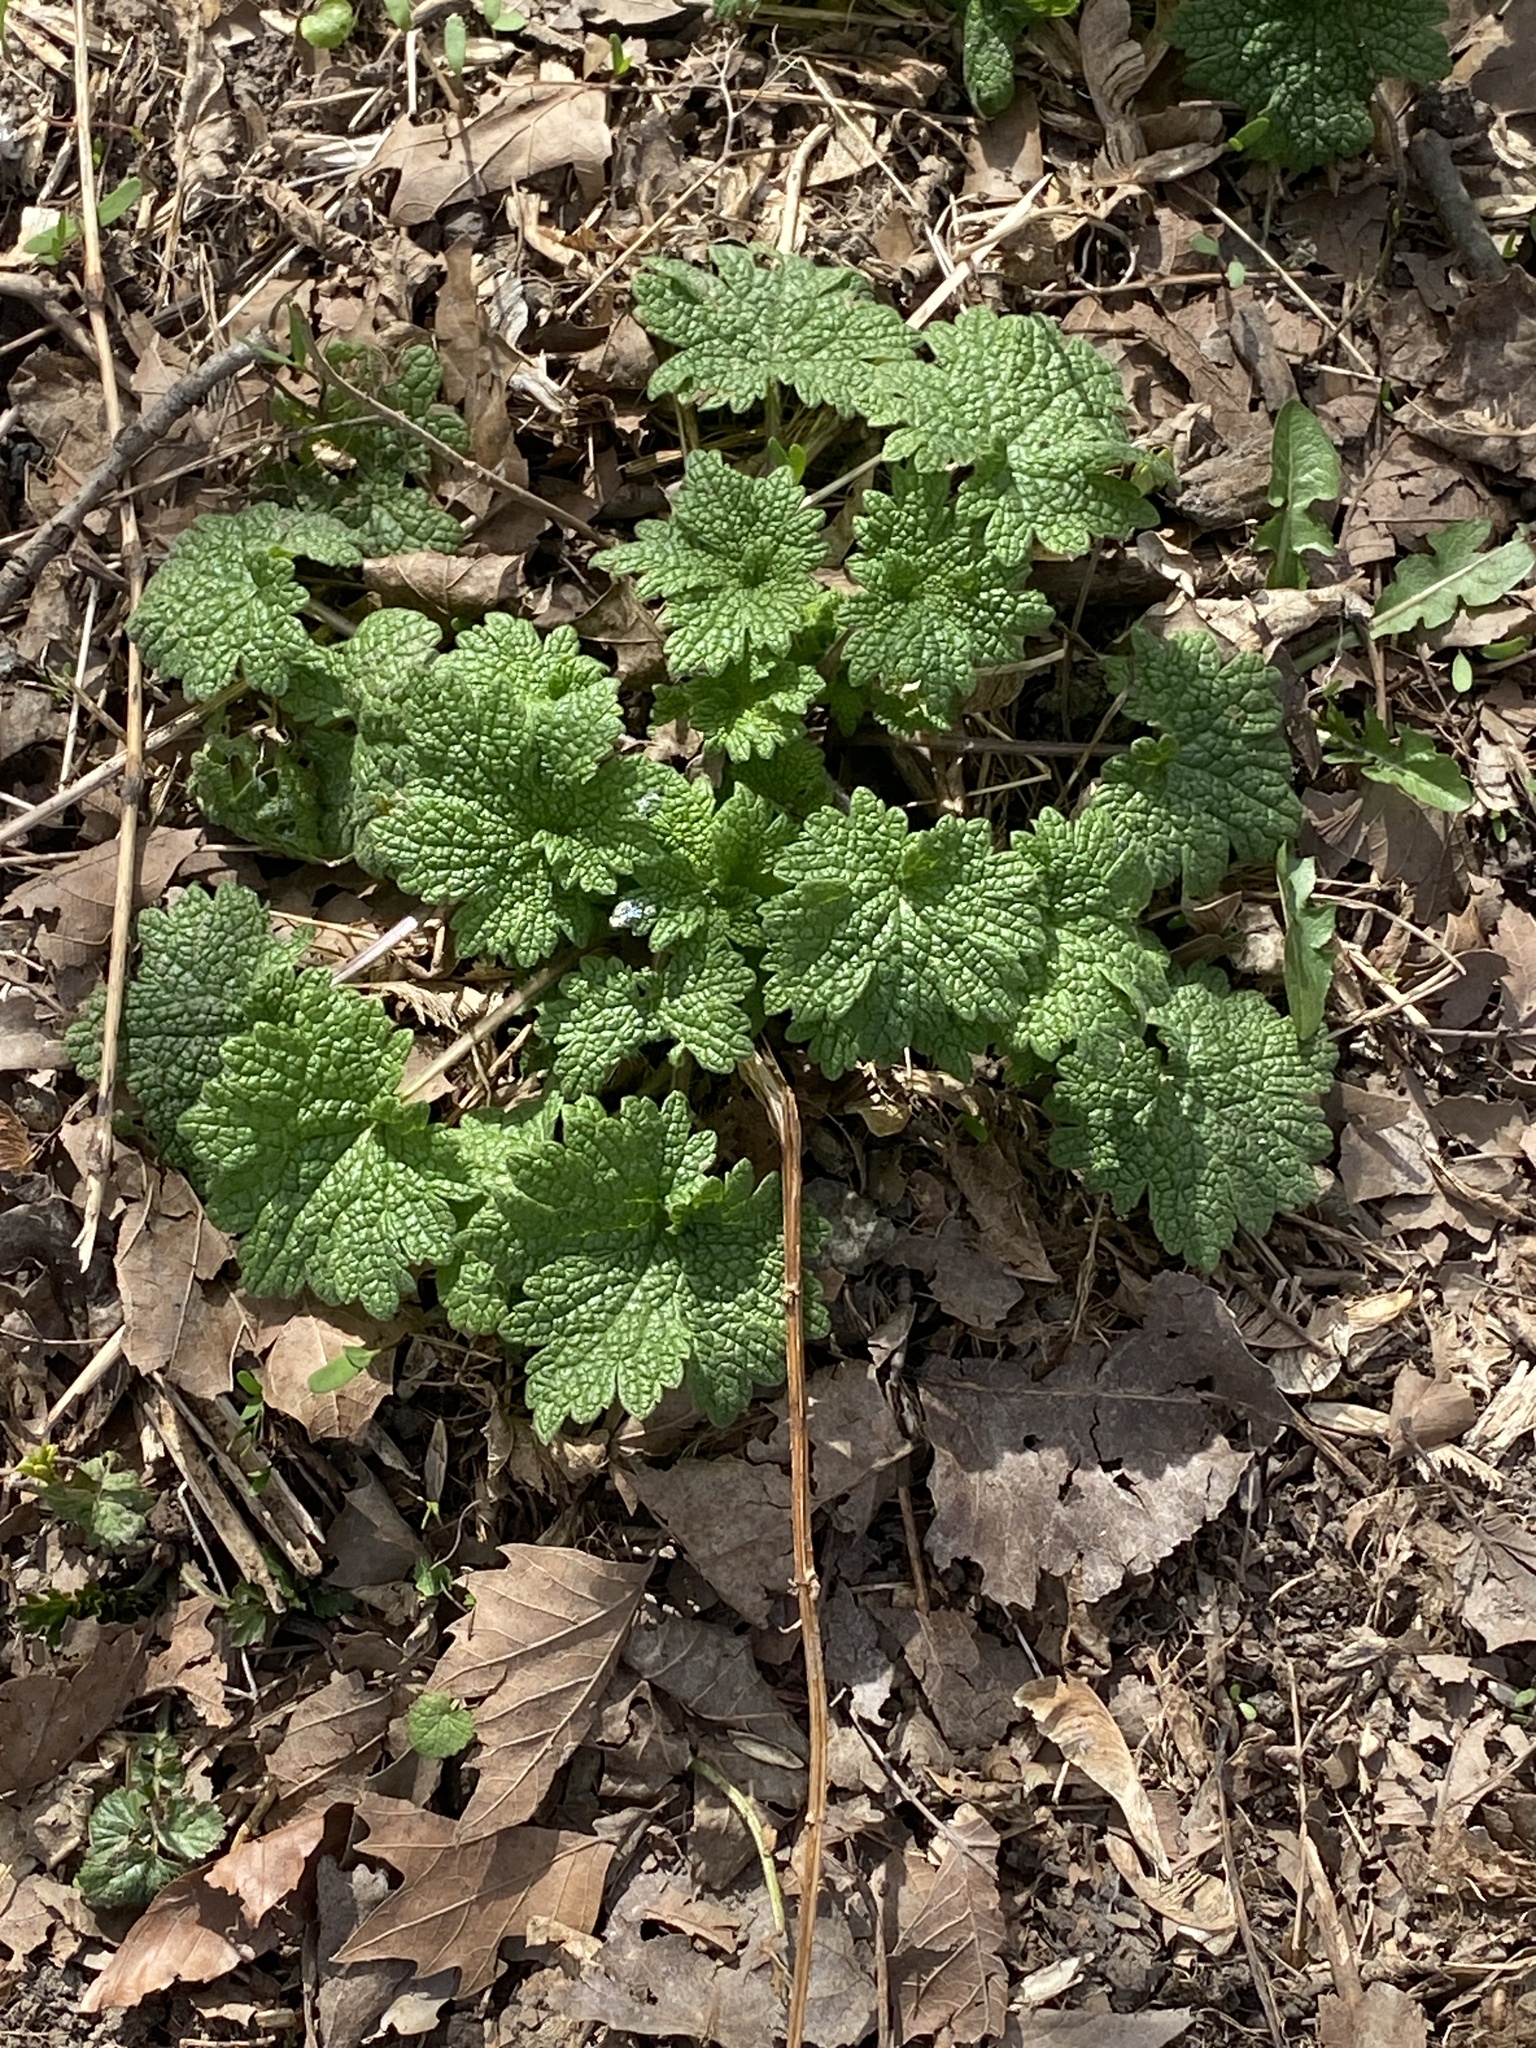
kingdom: Plantae
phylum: Tracheophyta
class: Magnoliopsida
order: Lamiales
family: Lamiaceae
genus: Leonurus
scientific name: Leonurus cardiaca
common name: Motherwort
